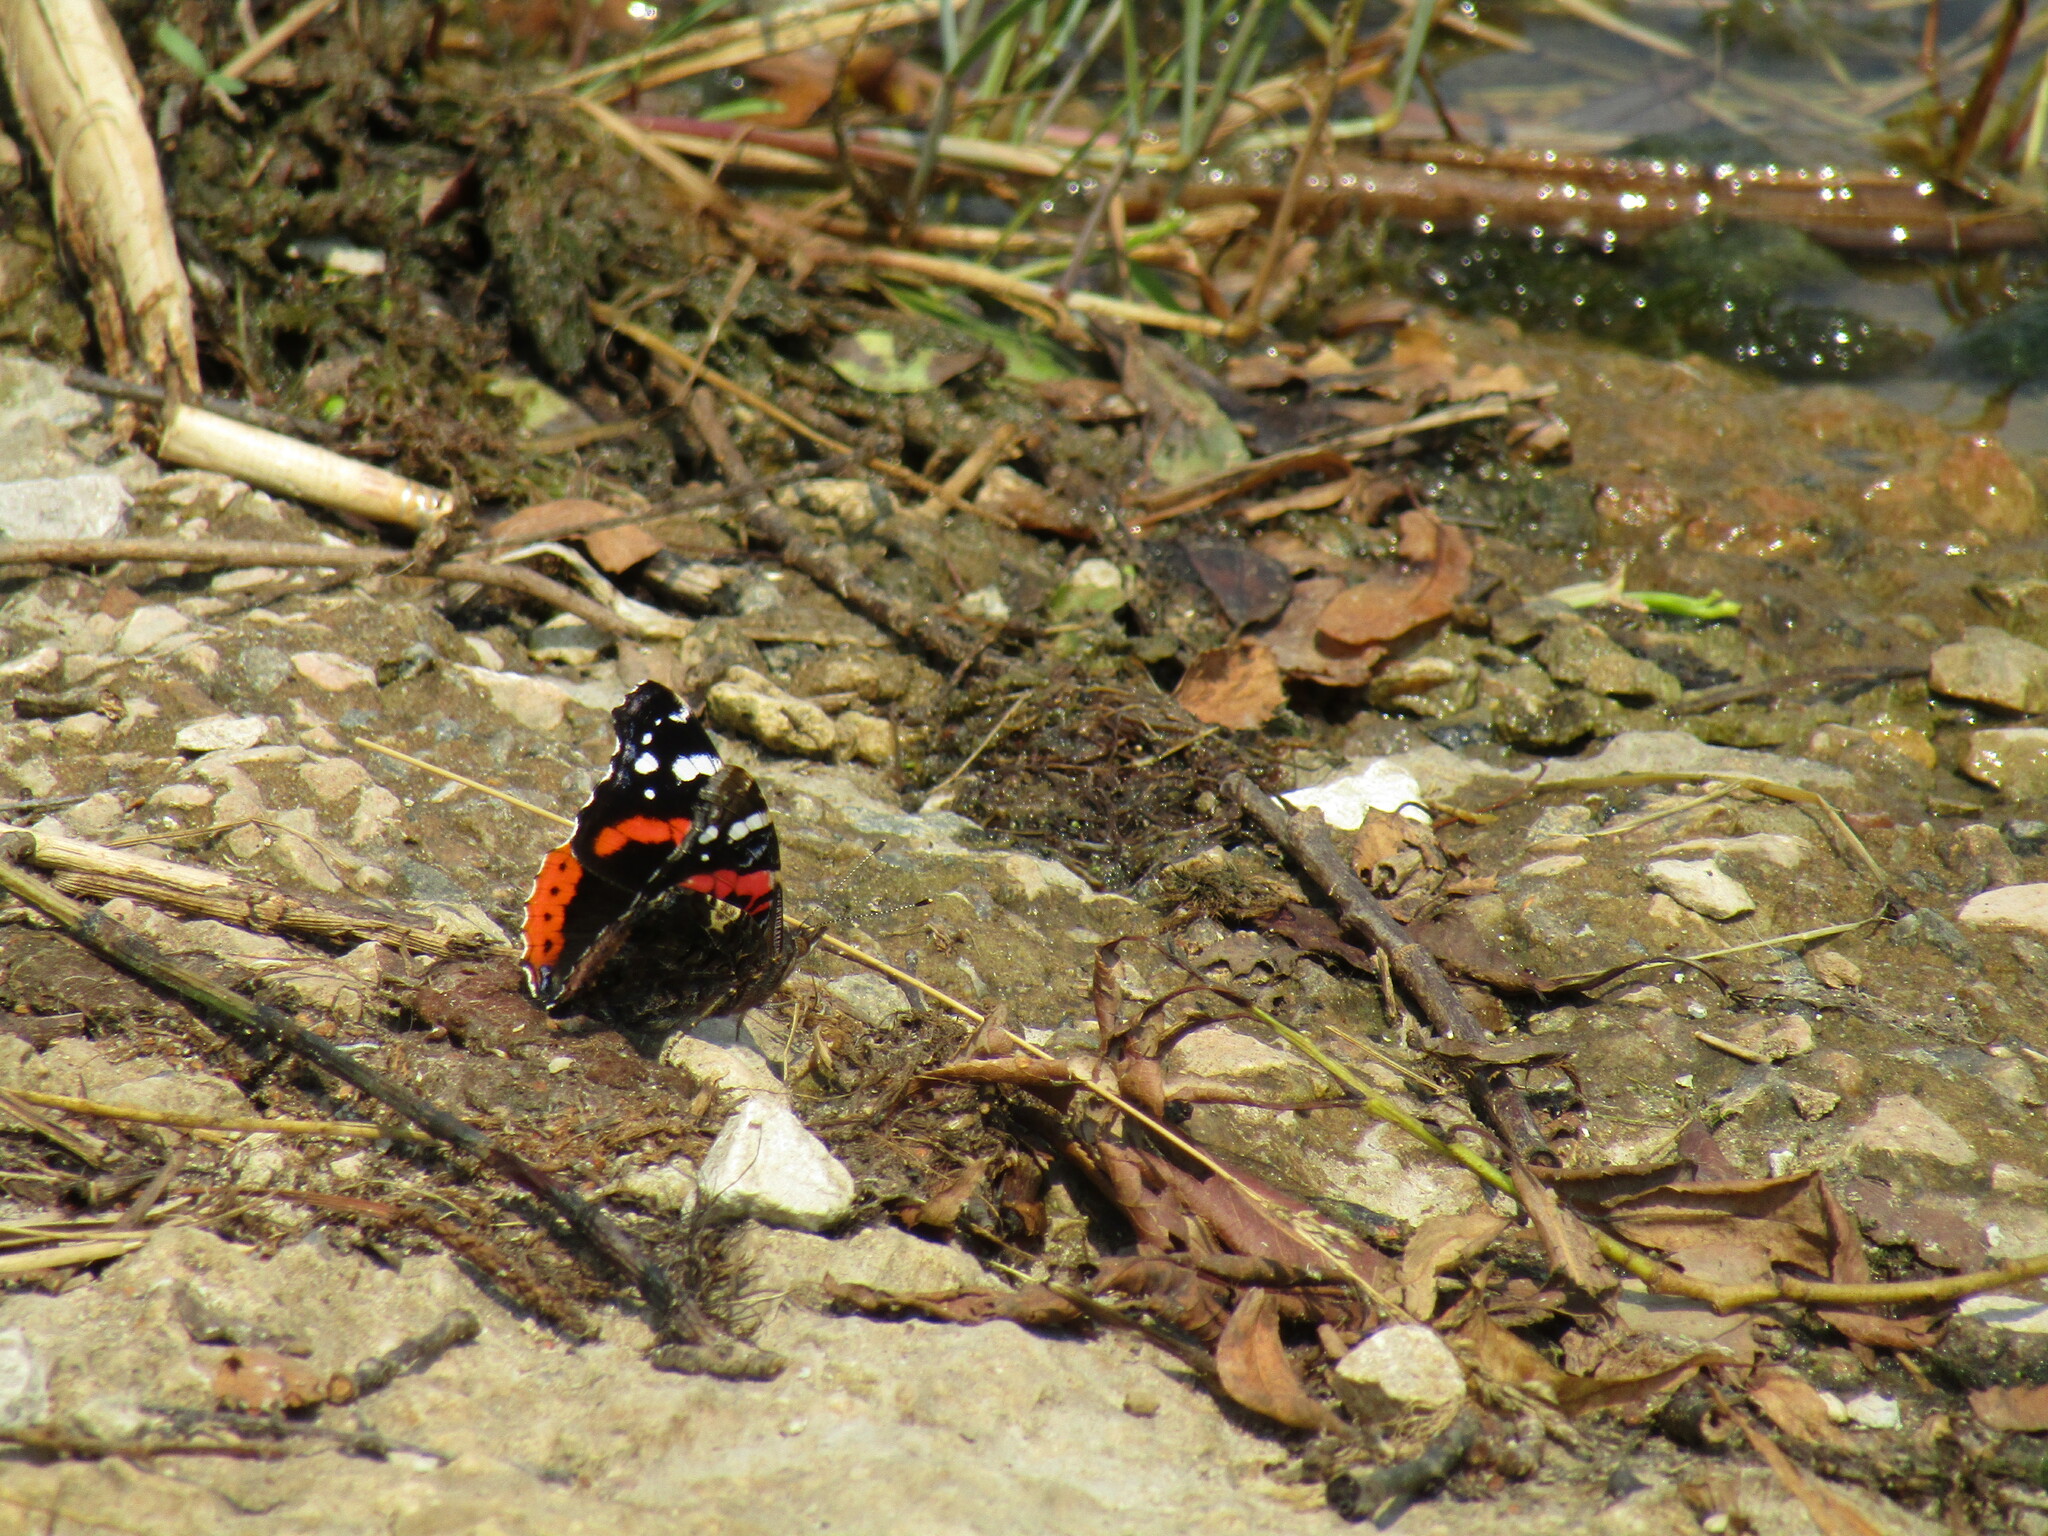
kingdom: Animalia
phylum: Arthropoda
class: Insecta
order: Lepidoptera
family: Nymphalidae
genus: Vanessa
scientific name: Vanessa atalanta
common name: Red admiral
